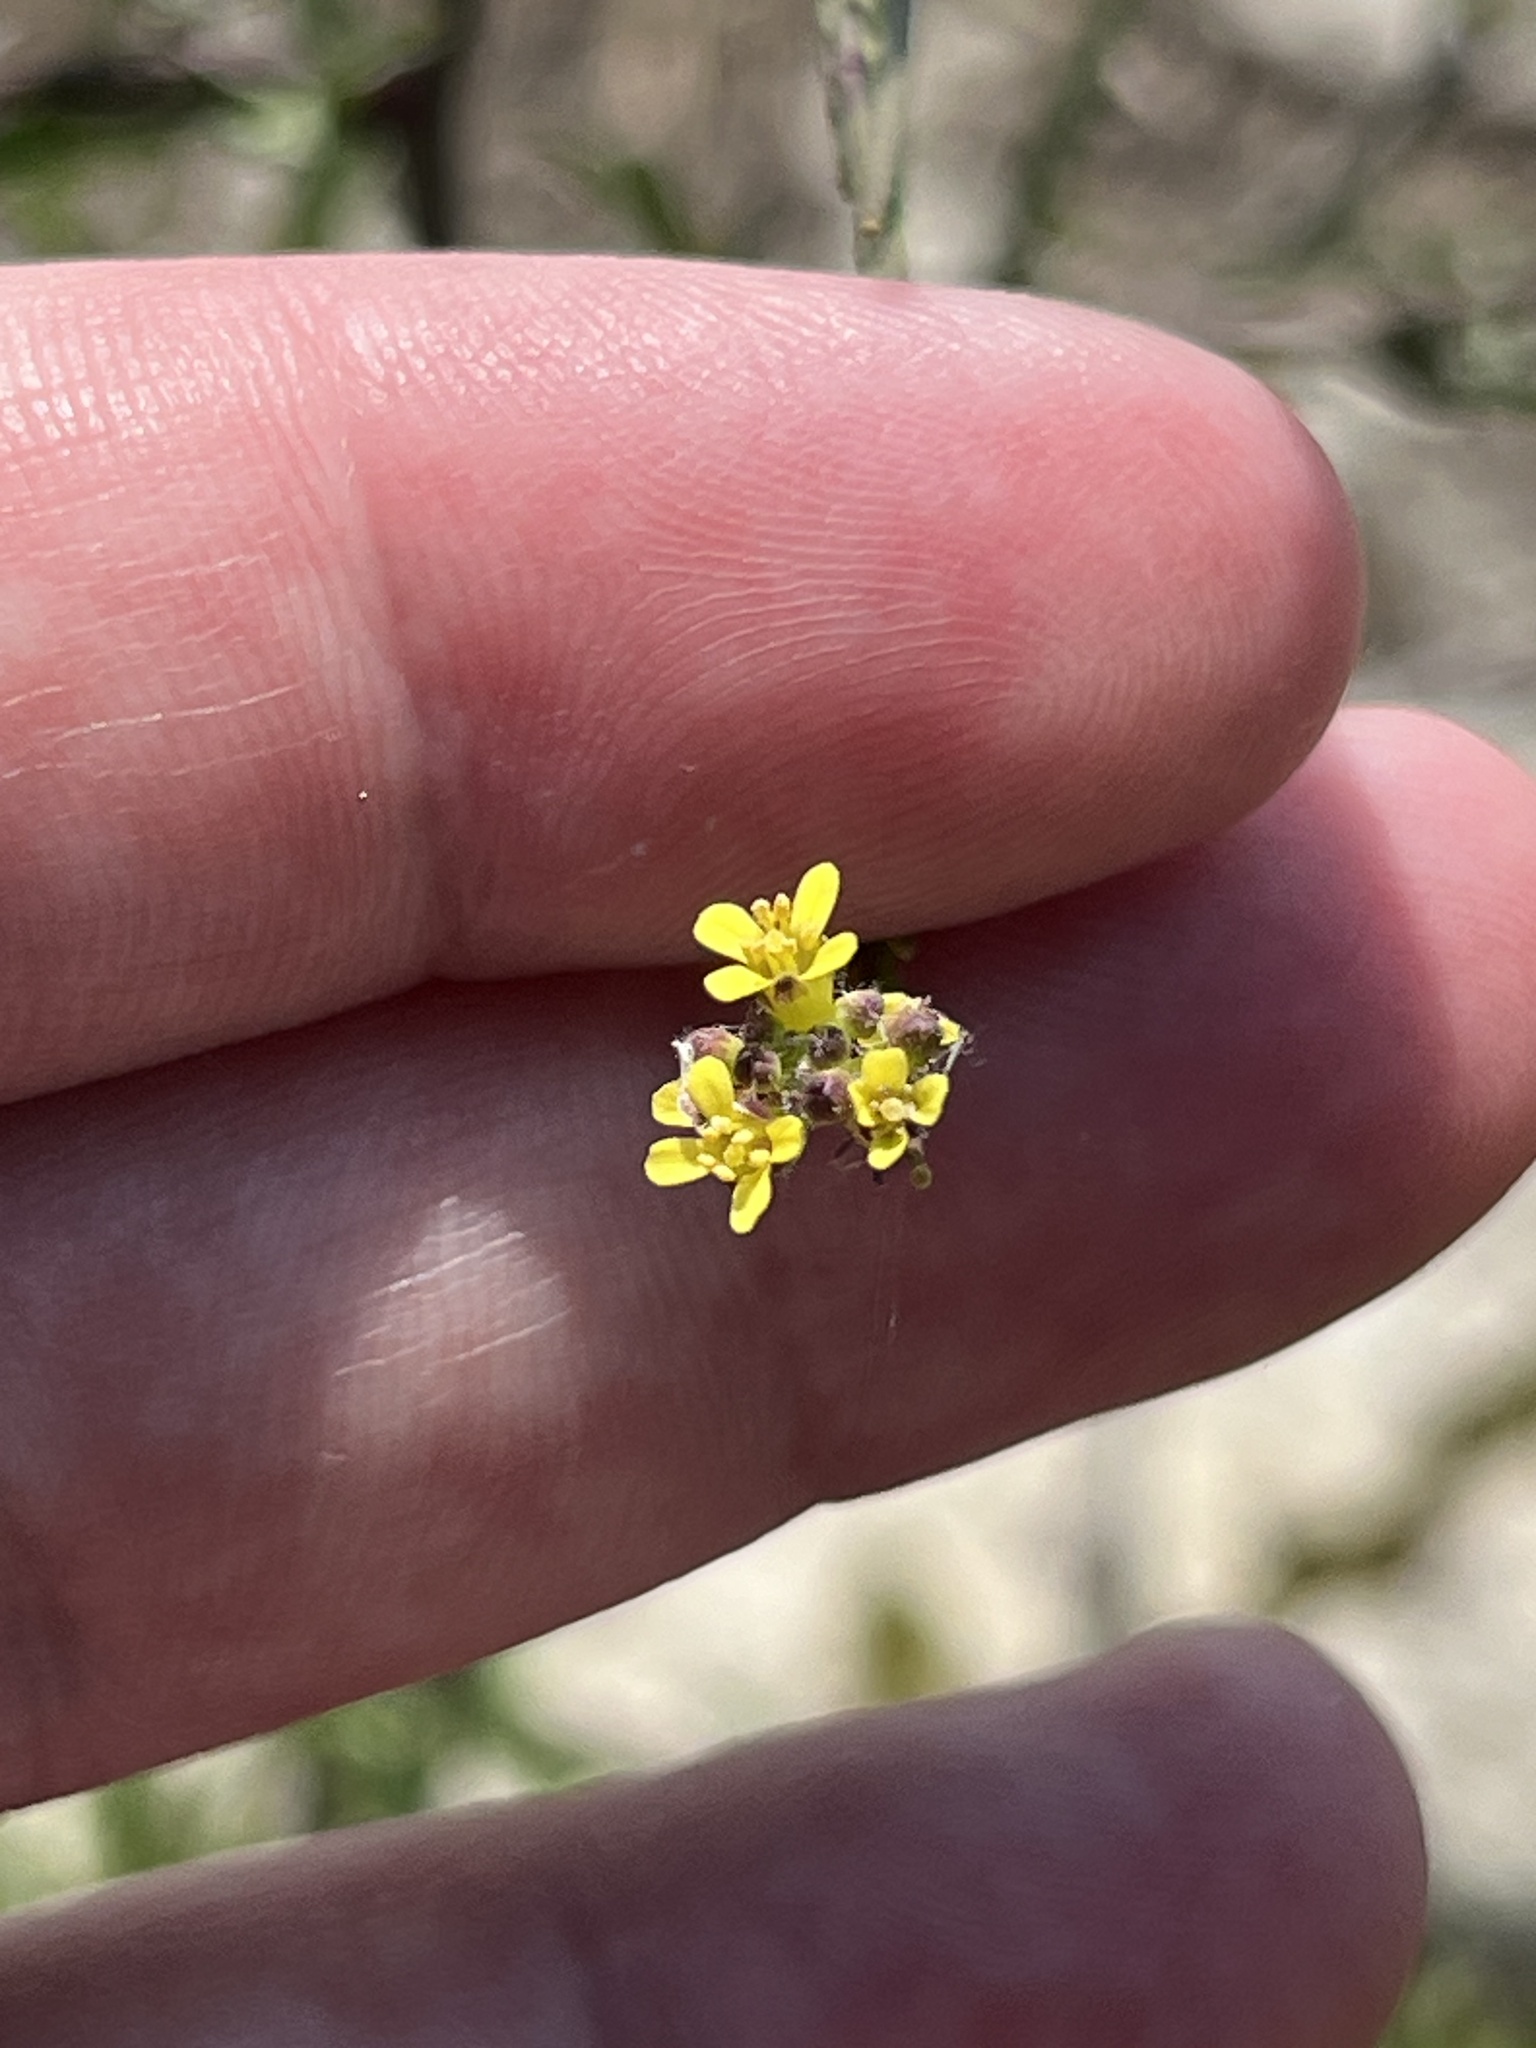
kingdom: Plantae
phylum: Tracheophyta
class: Magnoliopsida
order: Brassicales
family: Brassicaceae
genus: Sisymbrium
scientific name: Sisymbrium officinale
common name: Hedge mustard
